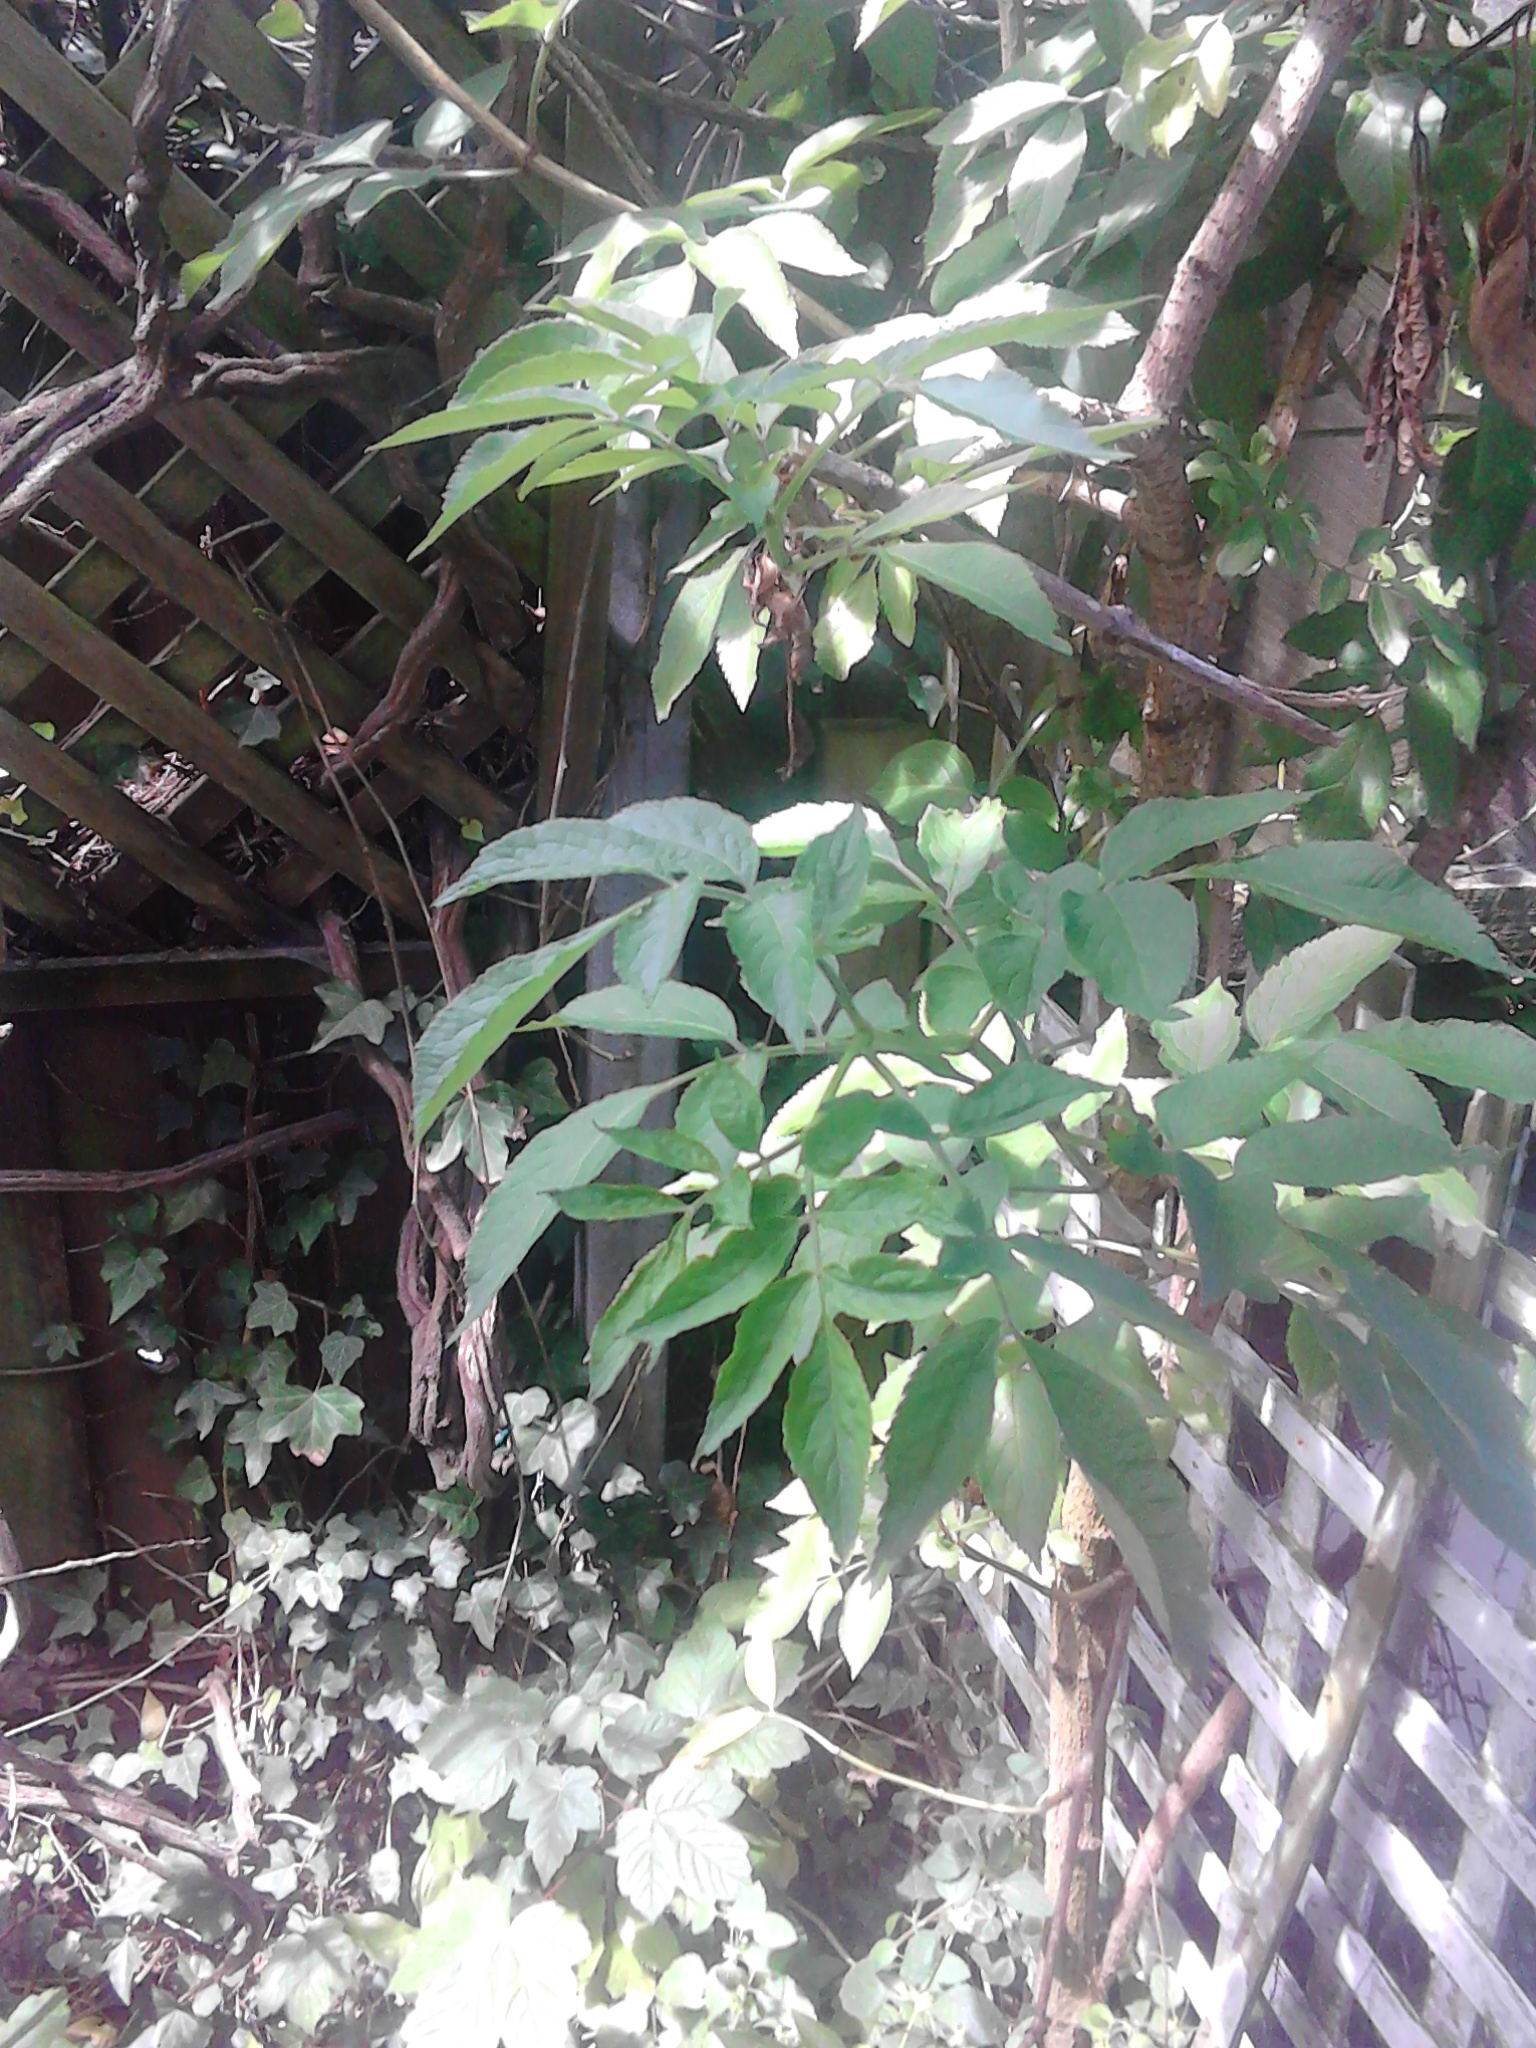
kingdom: Plantae
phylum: Tracheophyta
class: Magnoliopsida
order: Dipsacales
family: Viburnaceae
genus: Sambucus
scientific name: Sambucus nigra
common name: Elder
